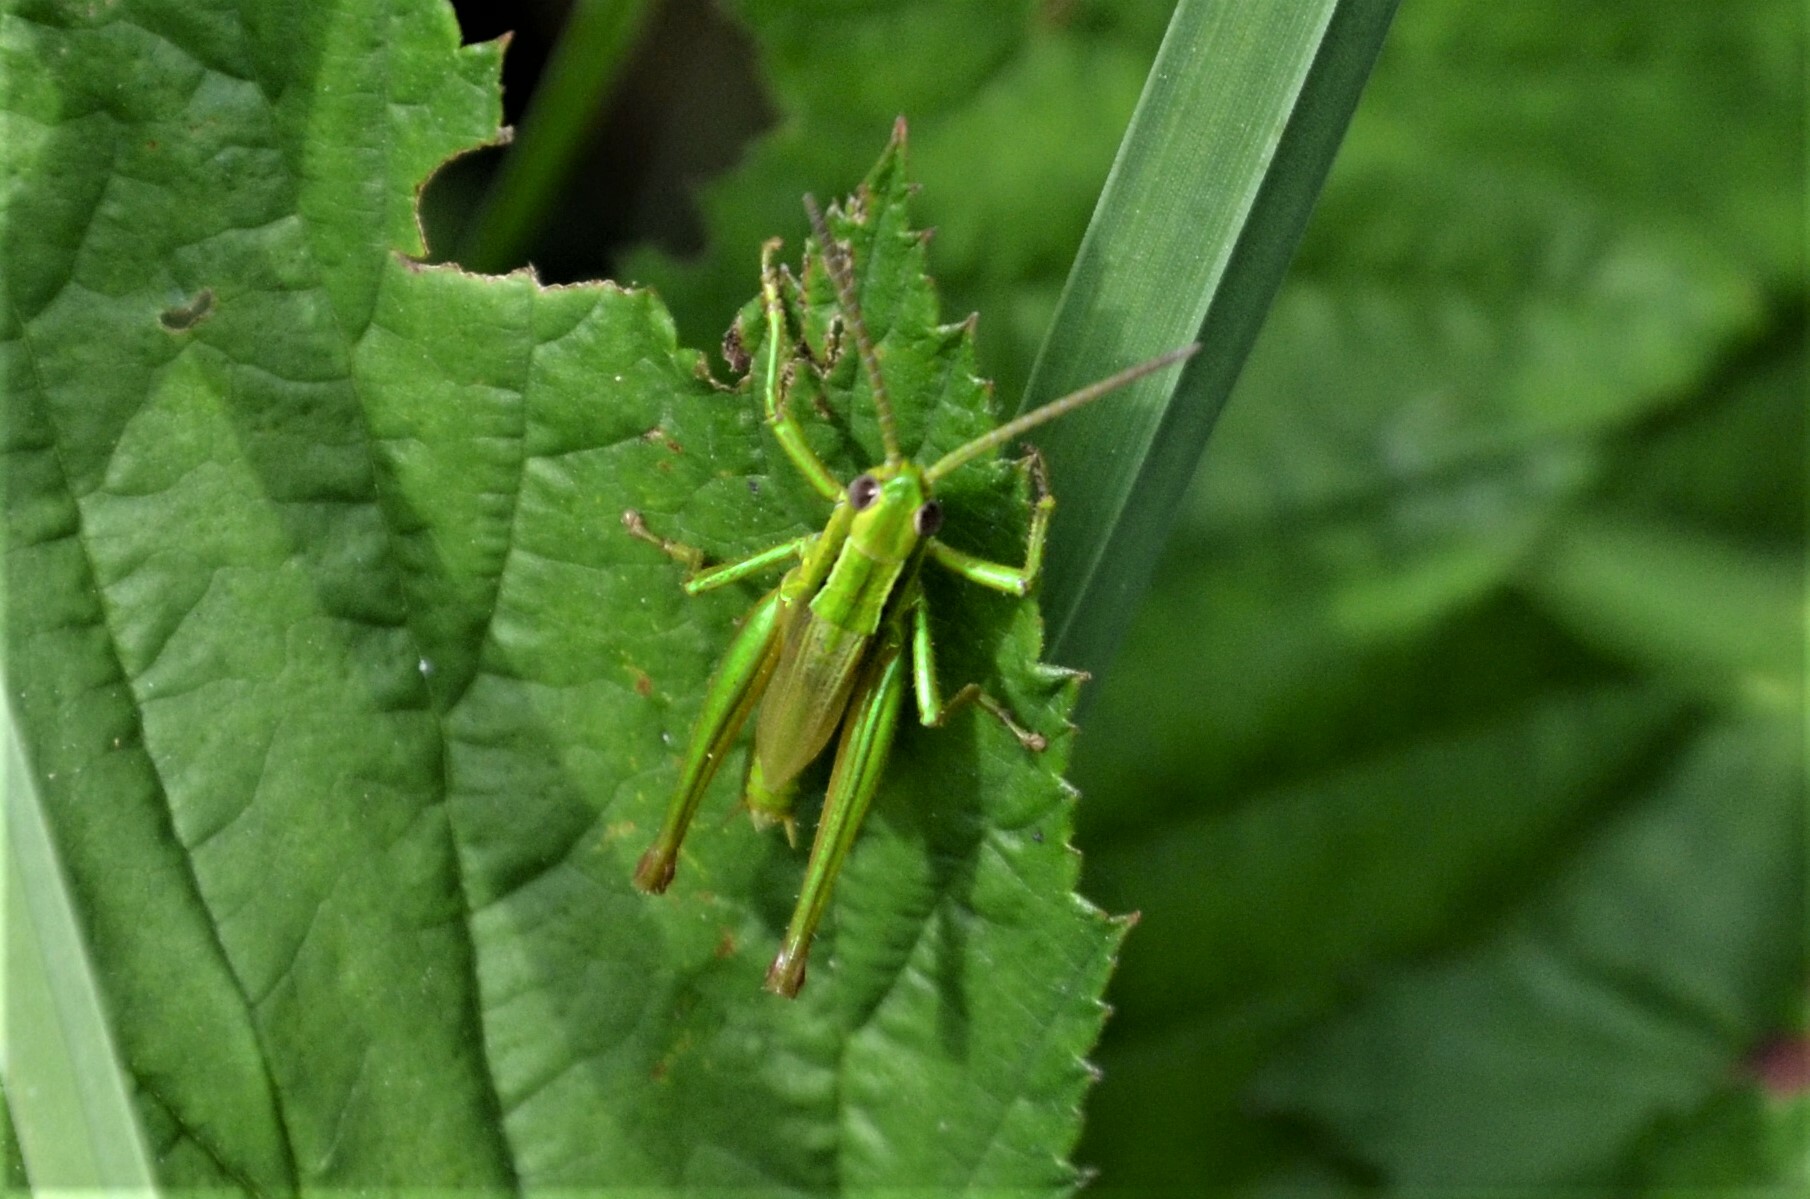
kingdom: Animalia
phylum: Arthropoda
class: Insecta
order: Orthoptera
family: Acrididae
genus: Euthystira
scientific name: Euthystira brachyptera
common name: Small gold grasshopper
